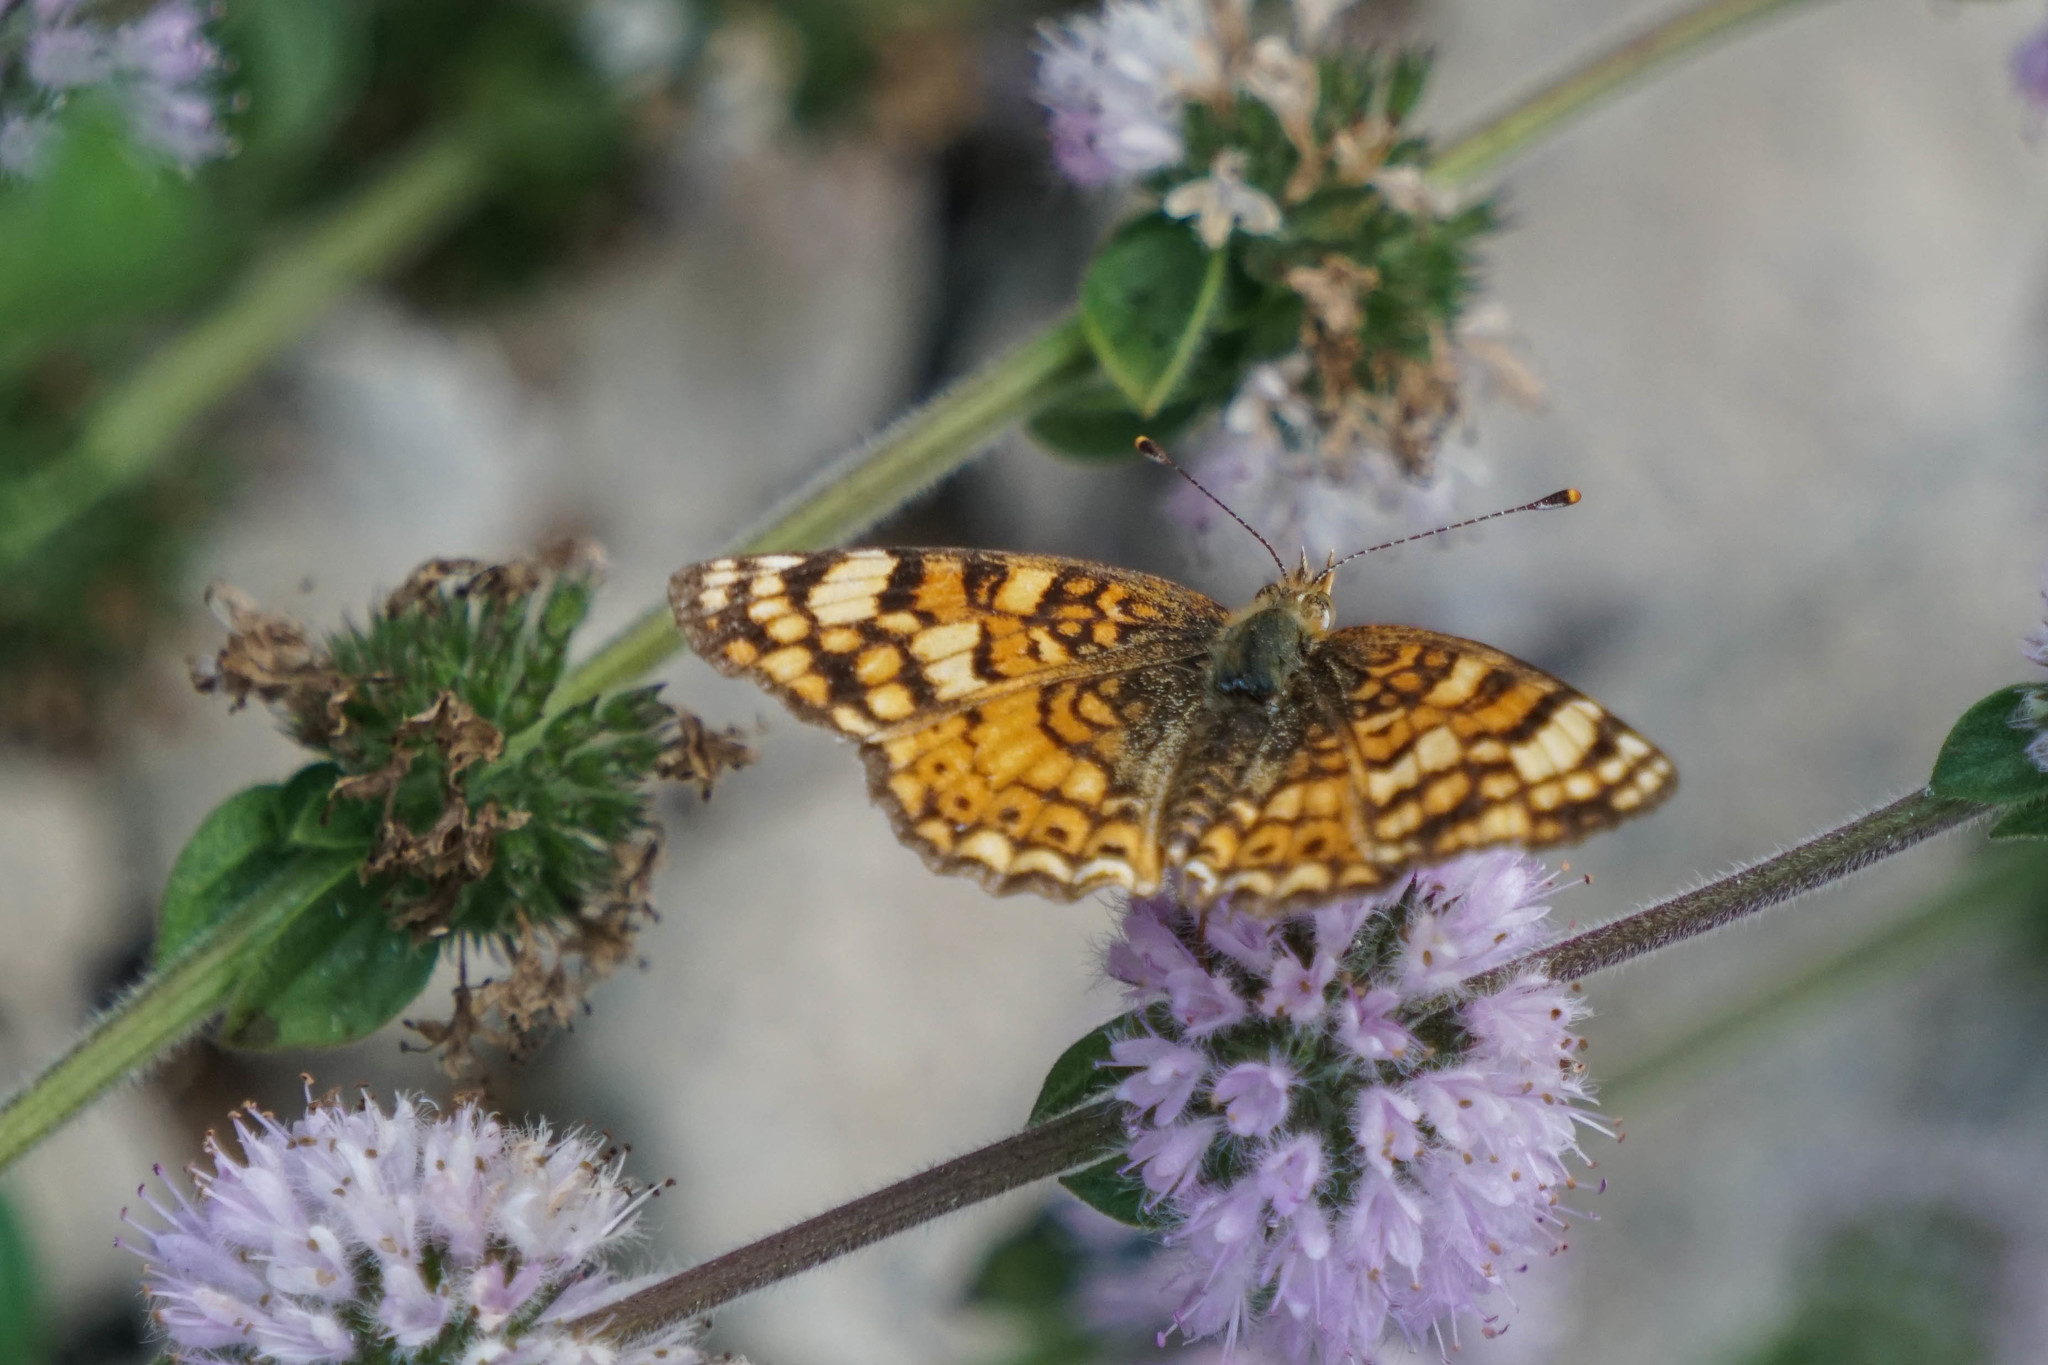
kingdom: Animalia
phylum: Arthropoda
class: Insecta
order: Lepidoptera
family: Nymphalidae
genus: Eresia
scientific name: Eresia aveyrona
